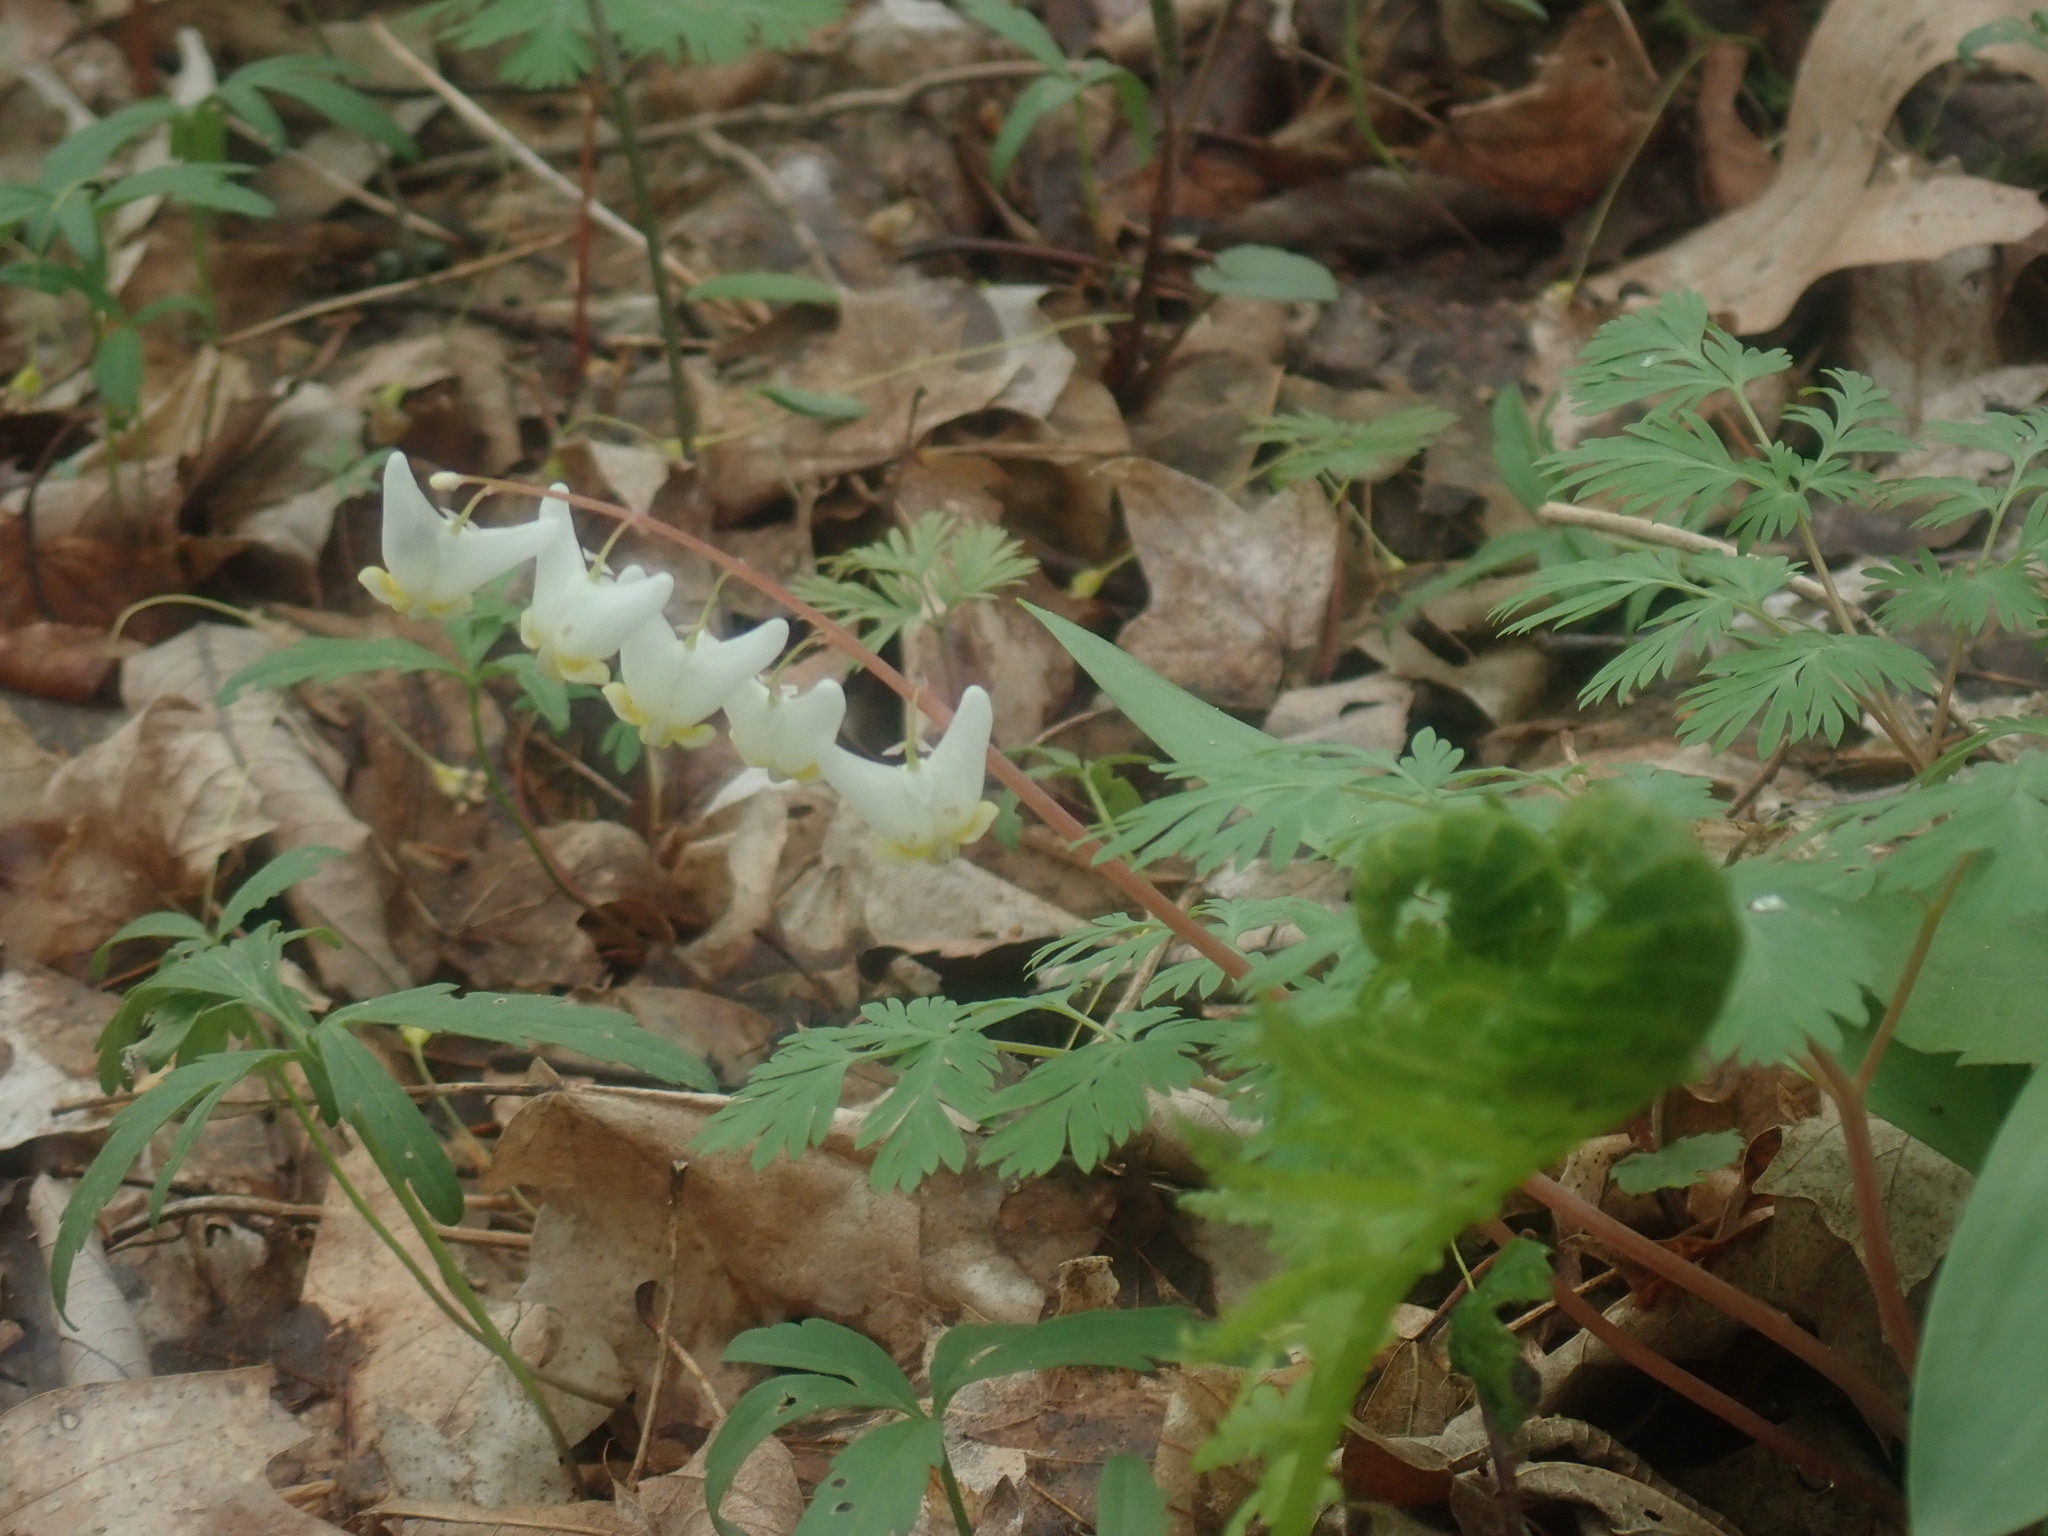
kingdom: Plantae
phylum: Tracheophyta
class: Magnoliopsida
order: Ranunculales
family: Papaveraceae
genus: Dicentra
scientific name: Dicentra cucullaria
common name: Dutchman's breeches
